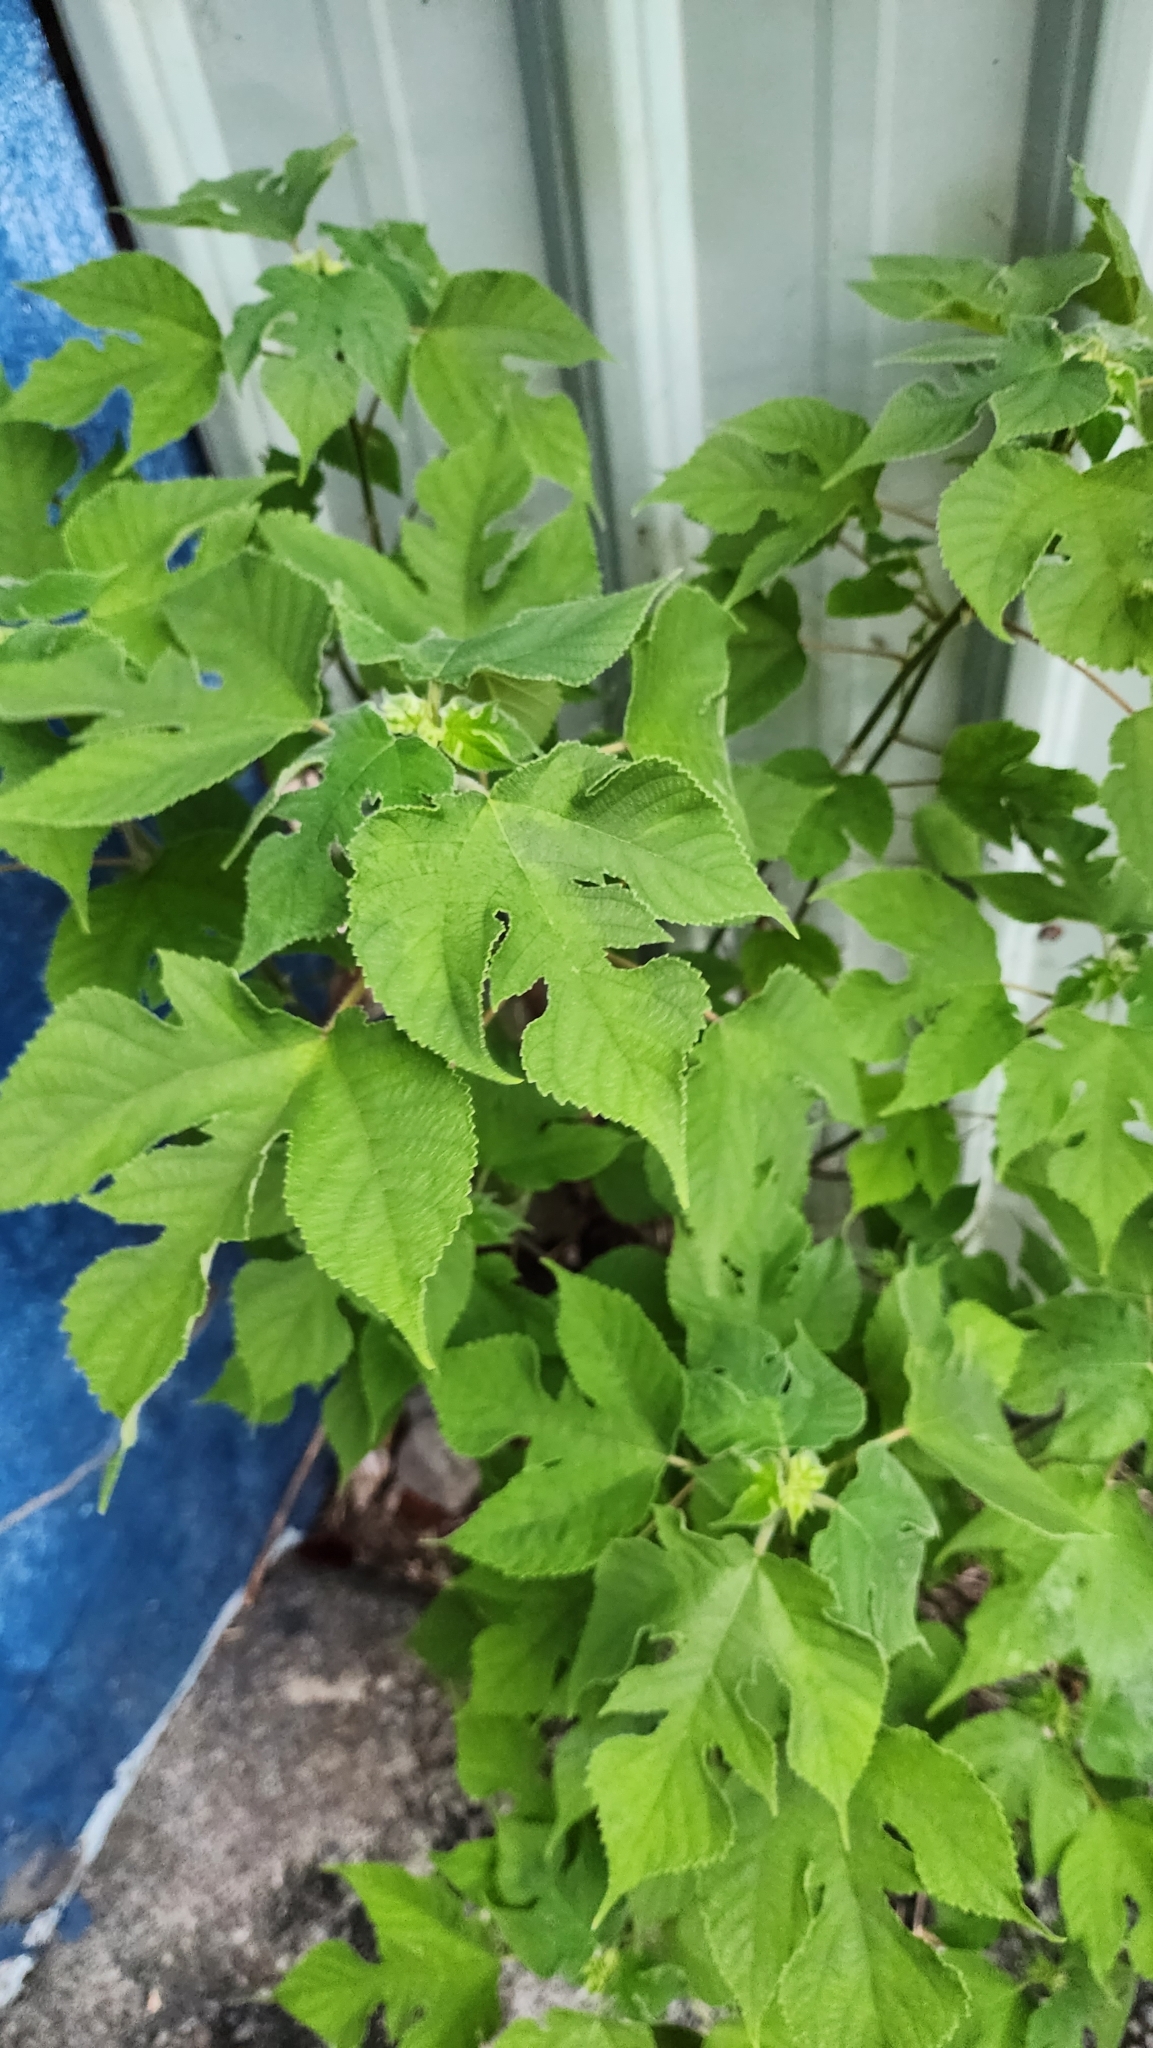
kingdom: Plantae
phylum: Tracheophyta
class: Magnoliopsida
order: Rosales
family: Moraceae
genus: Broussonetia
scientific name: Broussonetia papyrifera
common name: Paper mulberry
